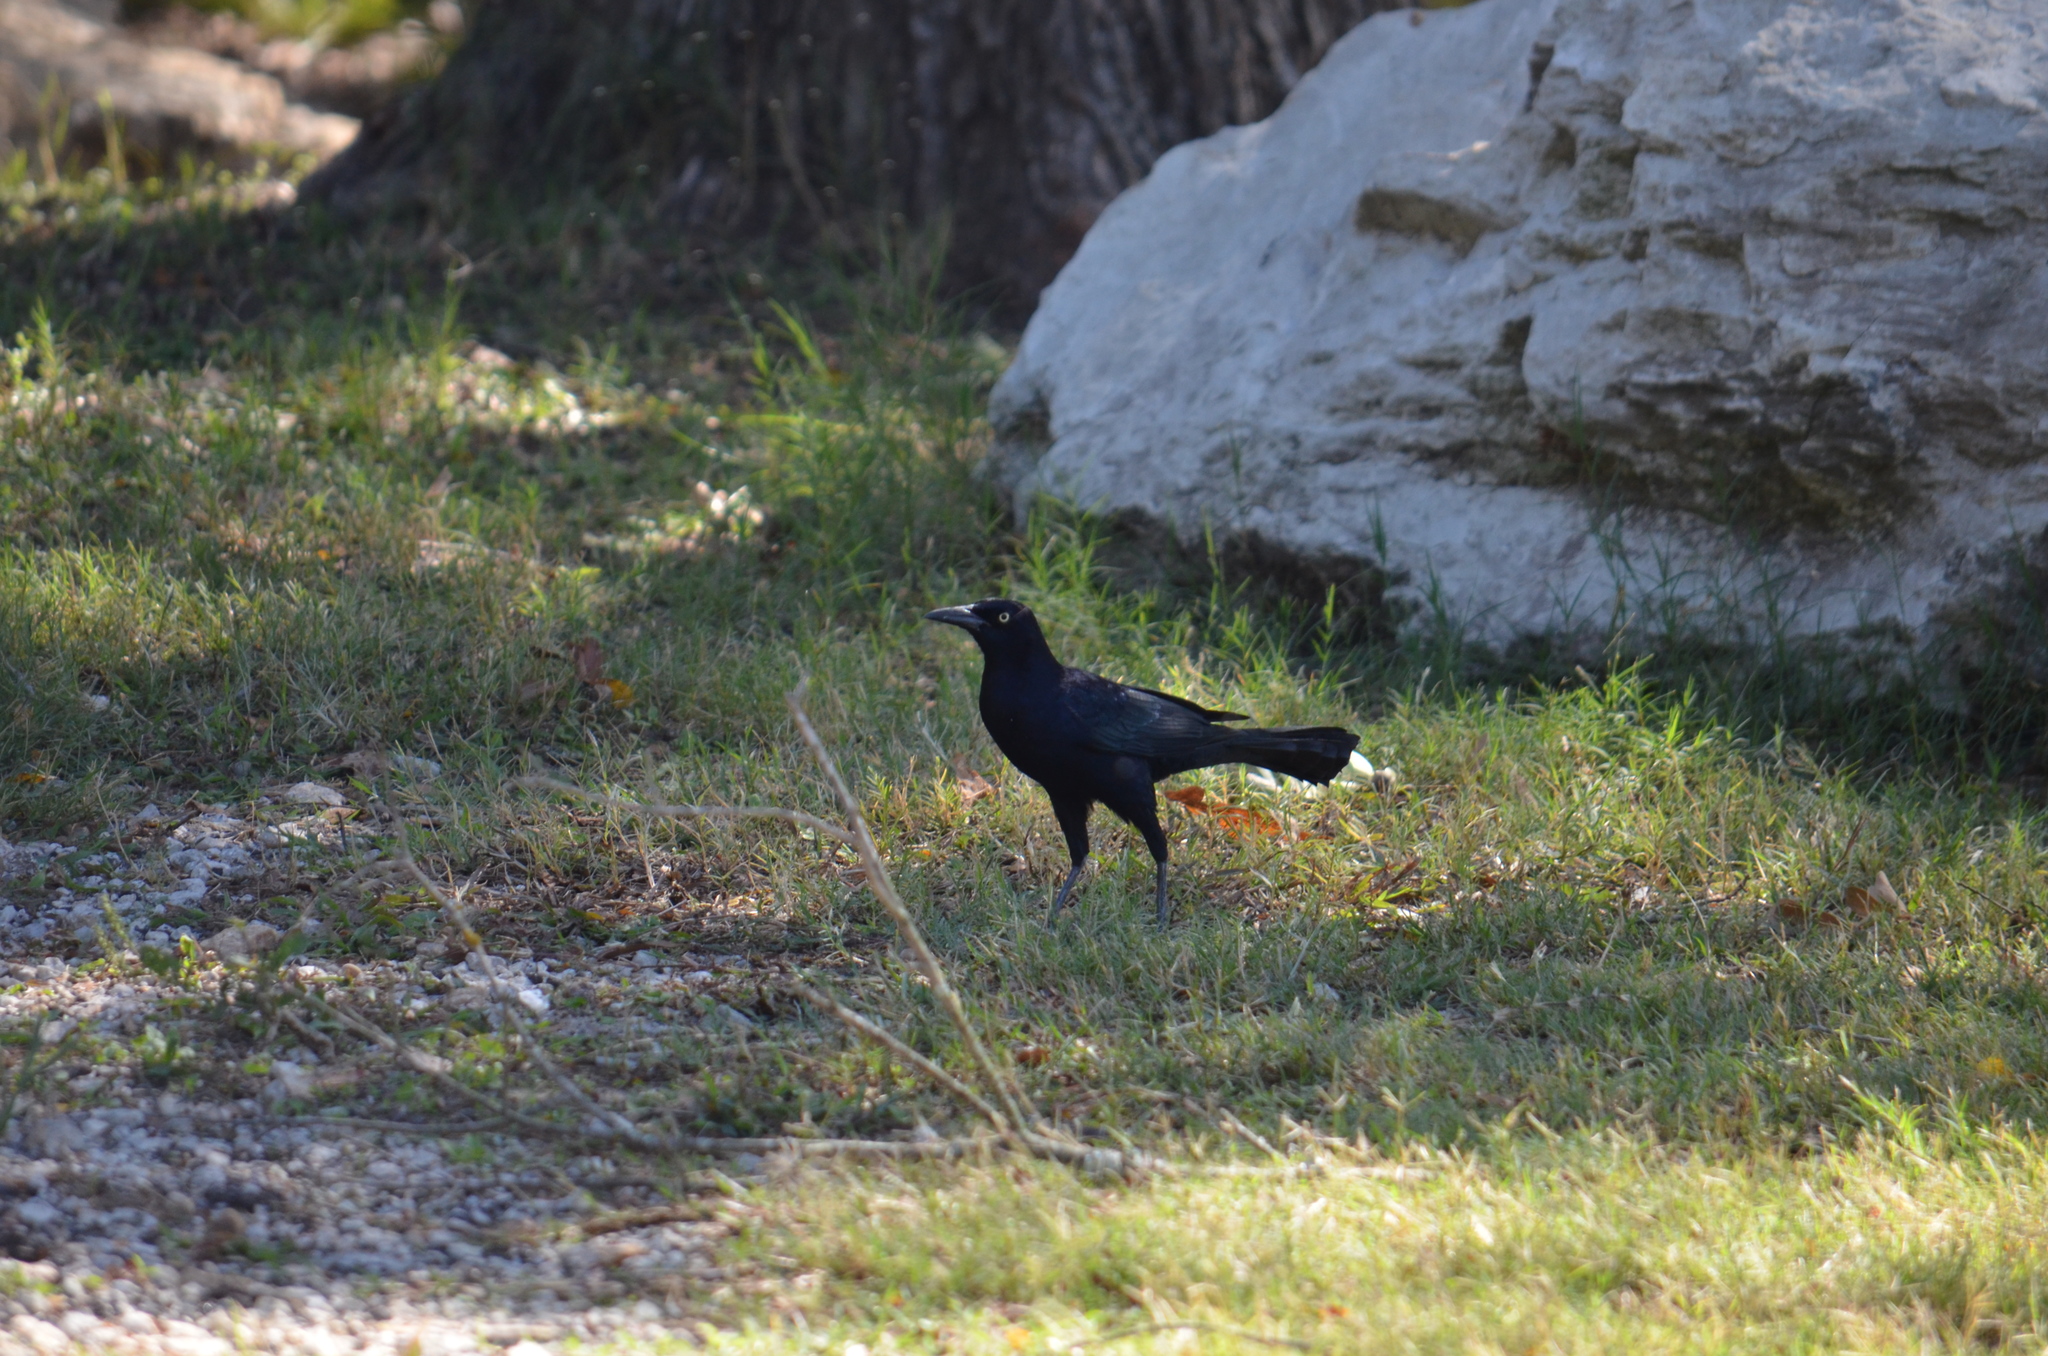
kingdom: Animalia
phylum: Chordata
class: Aves
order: Passeriformes
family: Icteridae
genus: Quiscalus
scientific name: Quiscalus mexicanus
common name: Great-tailed grackle
